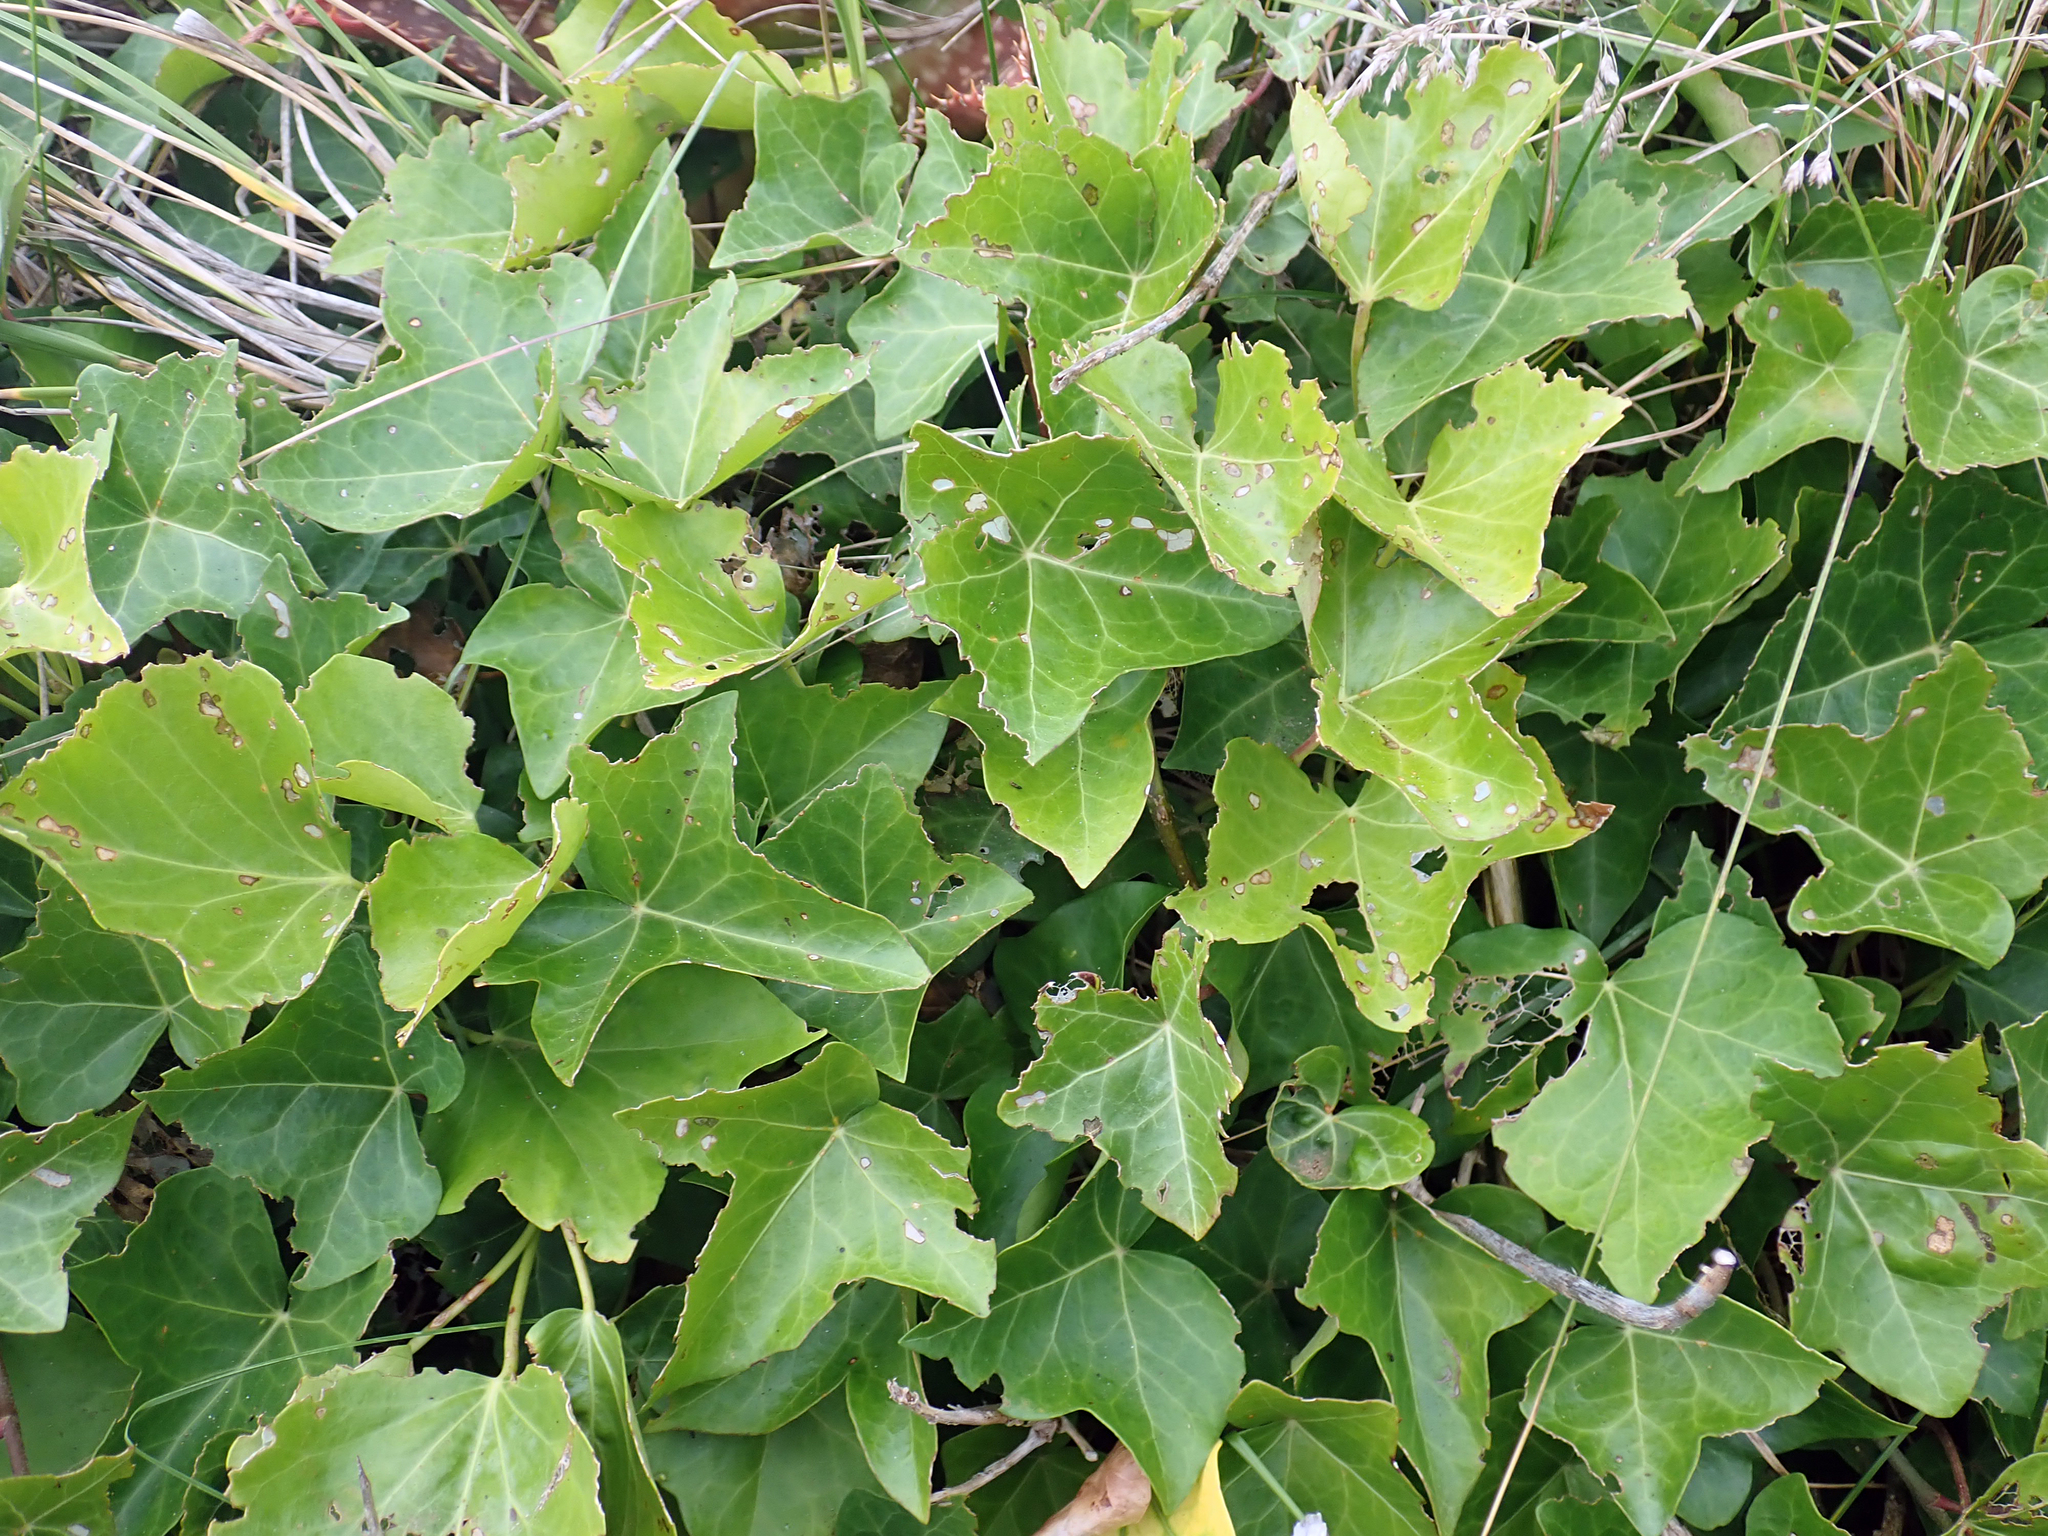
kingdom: Plantae
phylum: Tracheophyta
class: Magnoliopsida
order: Apiales
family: Araliaceae
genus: Hedera
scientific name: Hedera helix
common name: Ivy
